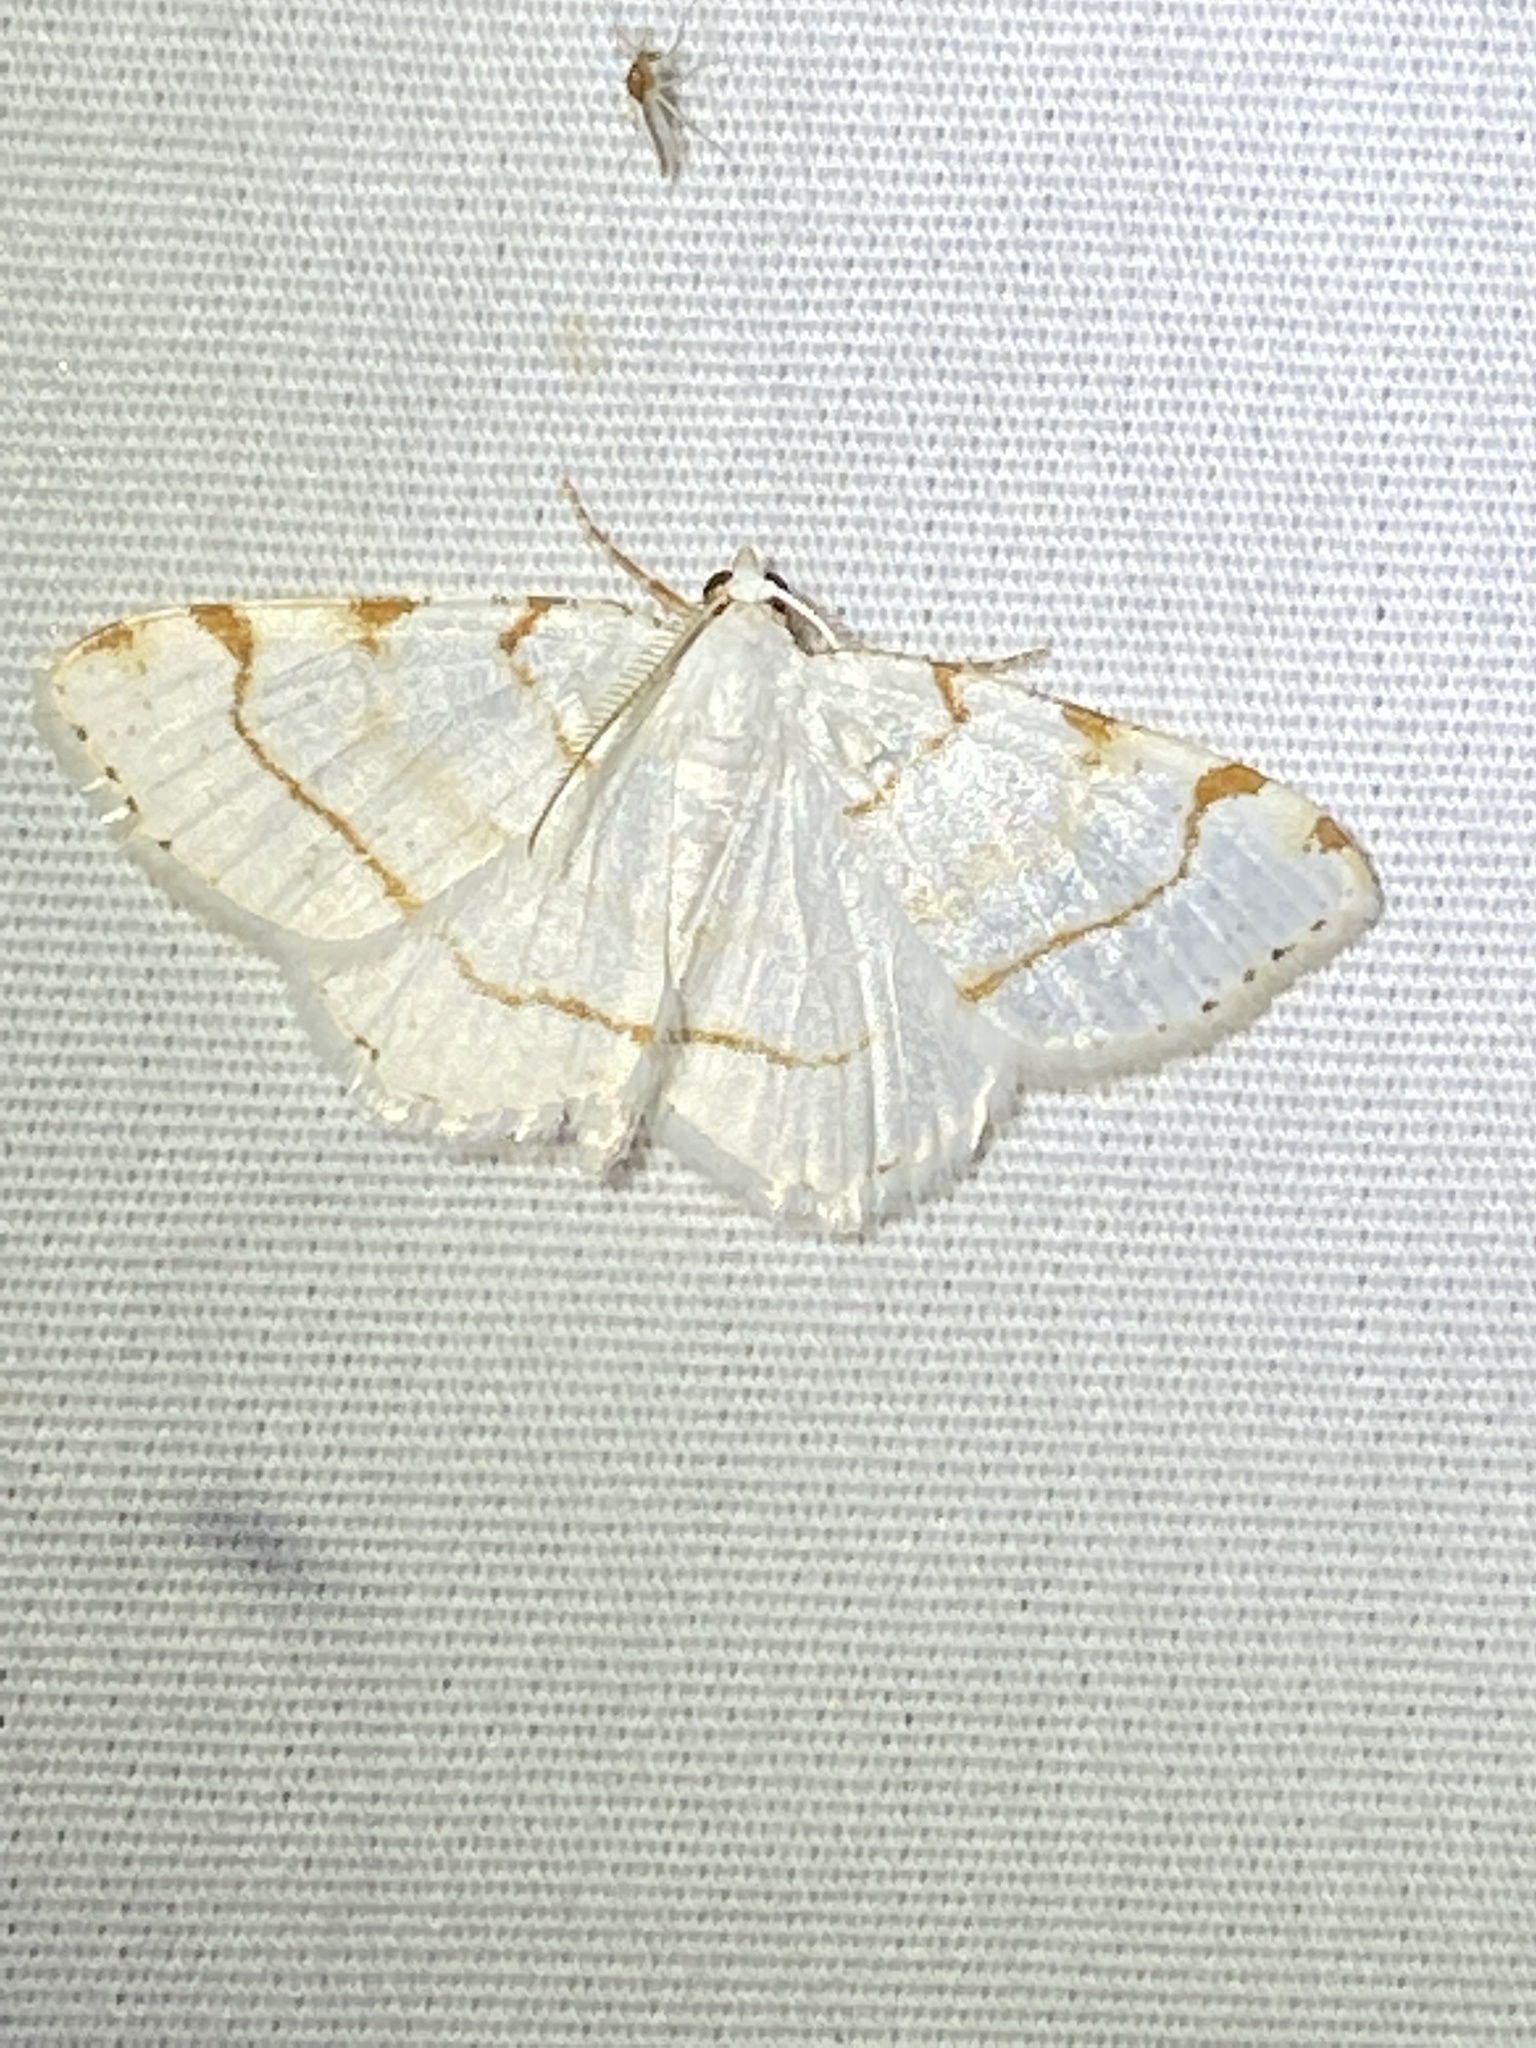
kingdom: Animalia
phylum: Arthropoda
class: Insecta
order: Lepidoptera
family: Geometridae
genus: Macaria
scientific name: Macaria pustularia
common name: Lesser maple spanworm moth
